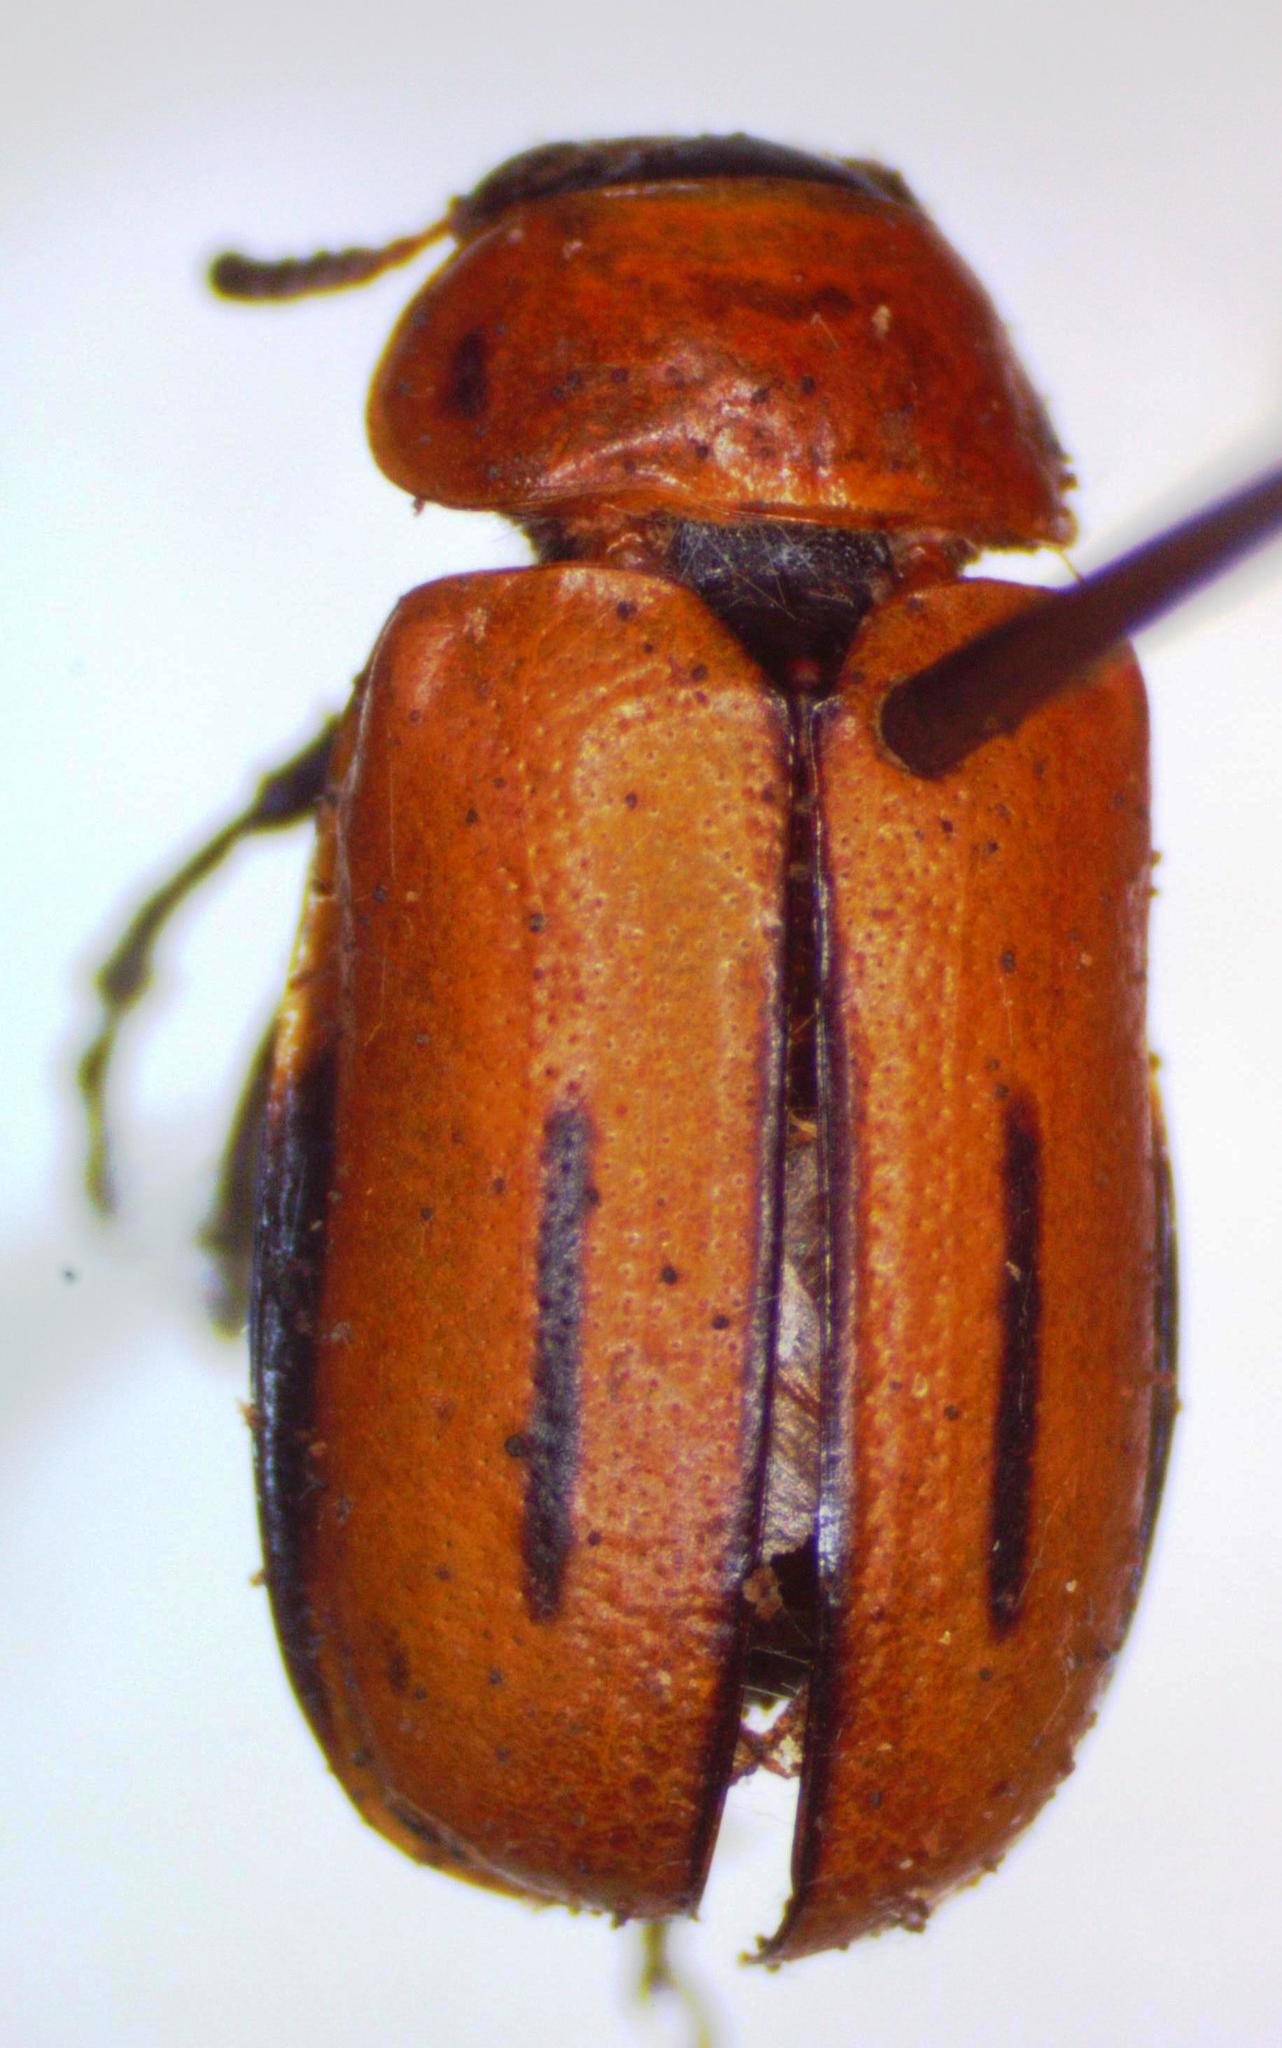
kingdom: Animalia
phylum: Arthropoda
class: Insecta
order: Coleoptera
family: Chrysomelidae
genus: Anomoea
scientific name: Anomoea rufifrons
